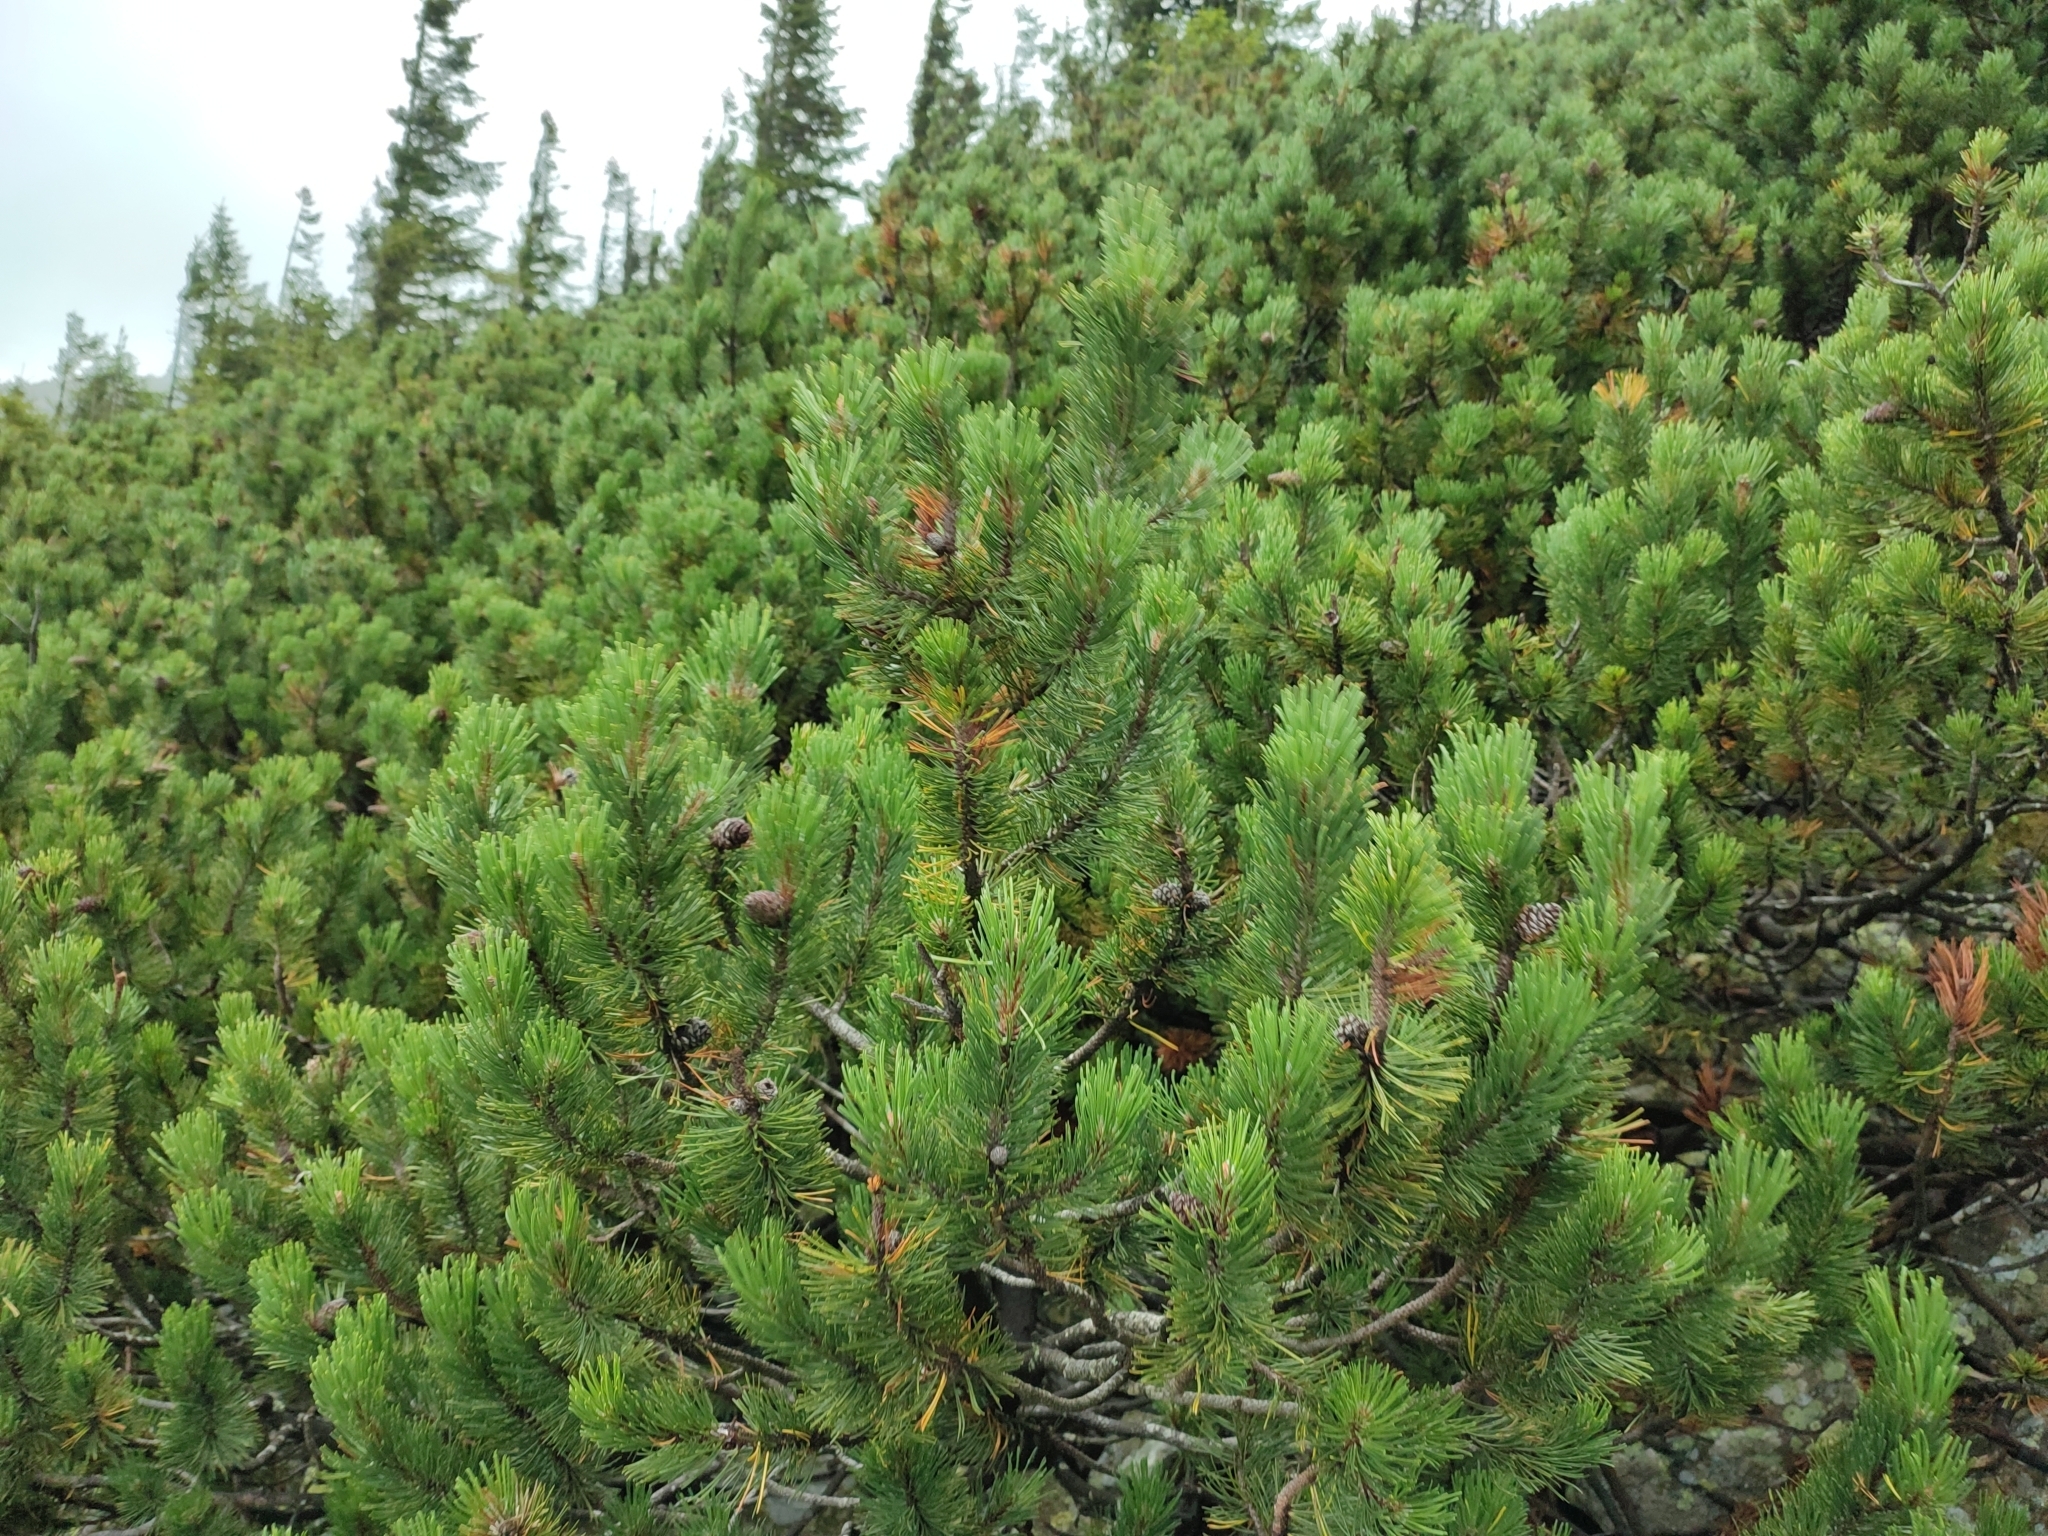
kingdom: Plantae
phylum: Tracheophyta
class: Pinopsida
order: Pinales
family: Pinaceae
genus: Pinus
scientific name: Pinus mugo
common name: Mugo pine
